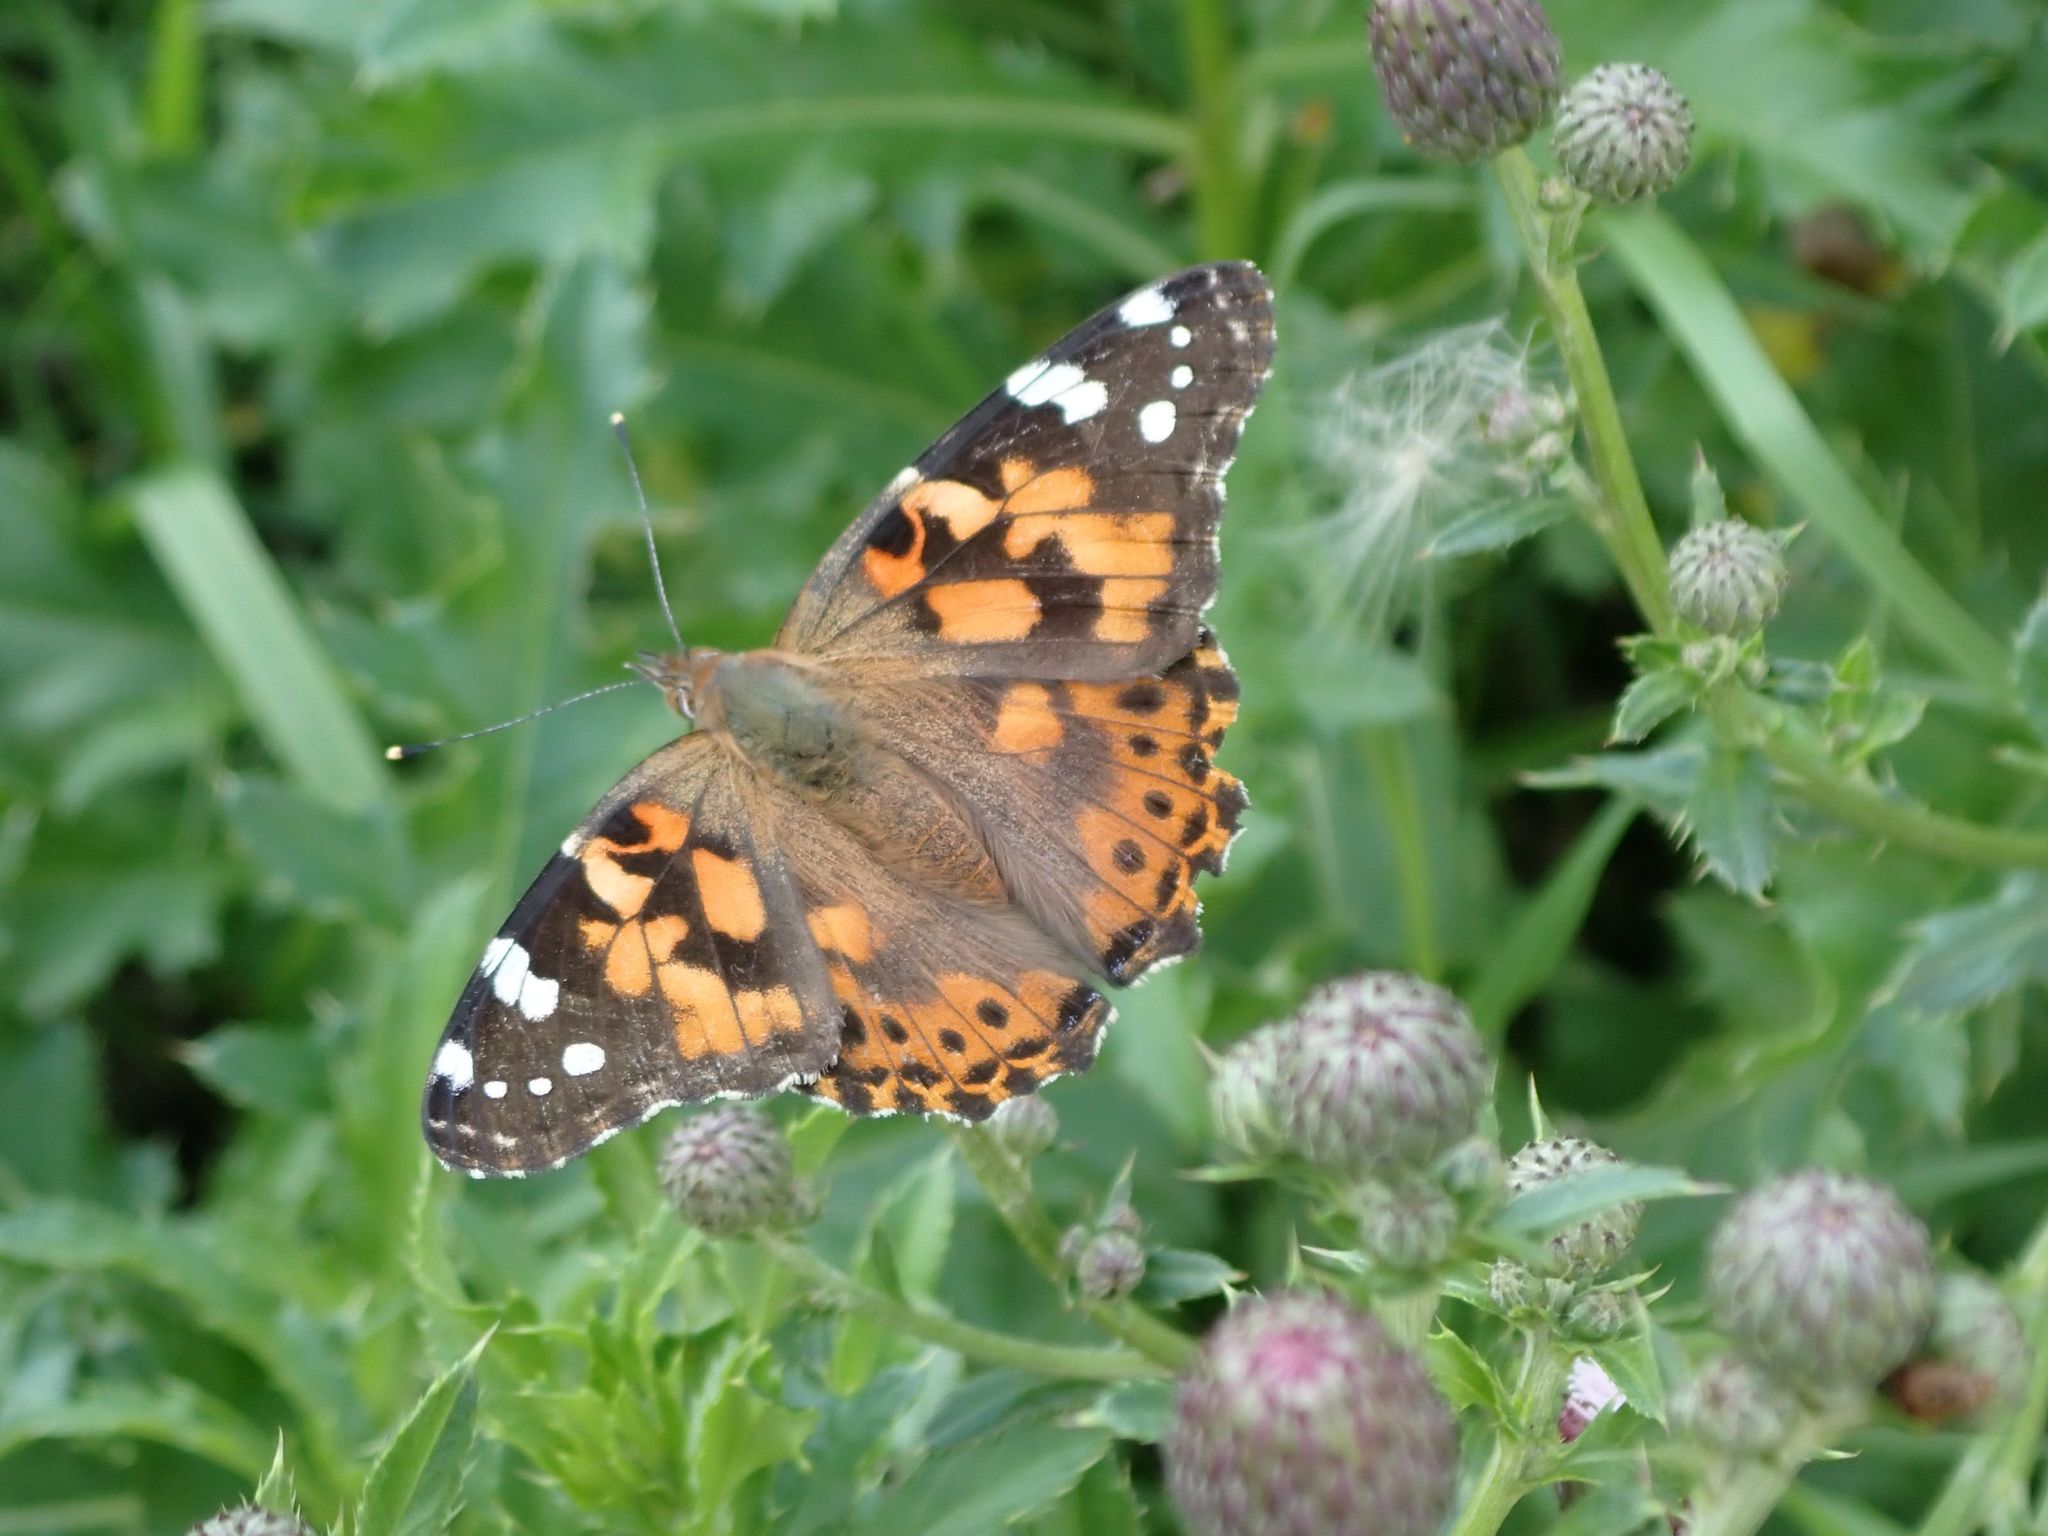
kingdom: Animalia
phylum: Arthropoda
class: Insecta
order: Lepidoptera
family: Nymphalidae
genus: Vanessa
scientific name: Vanessa cardui
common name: Painted lady
